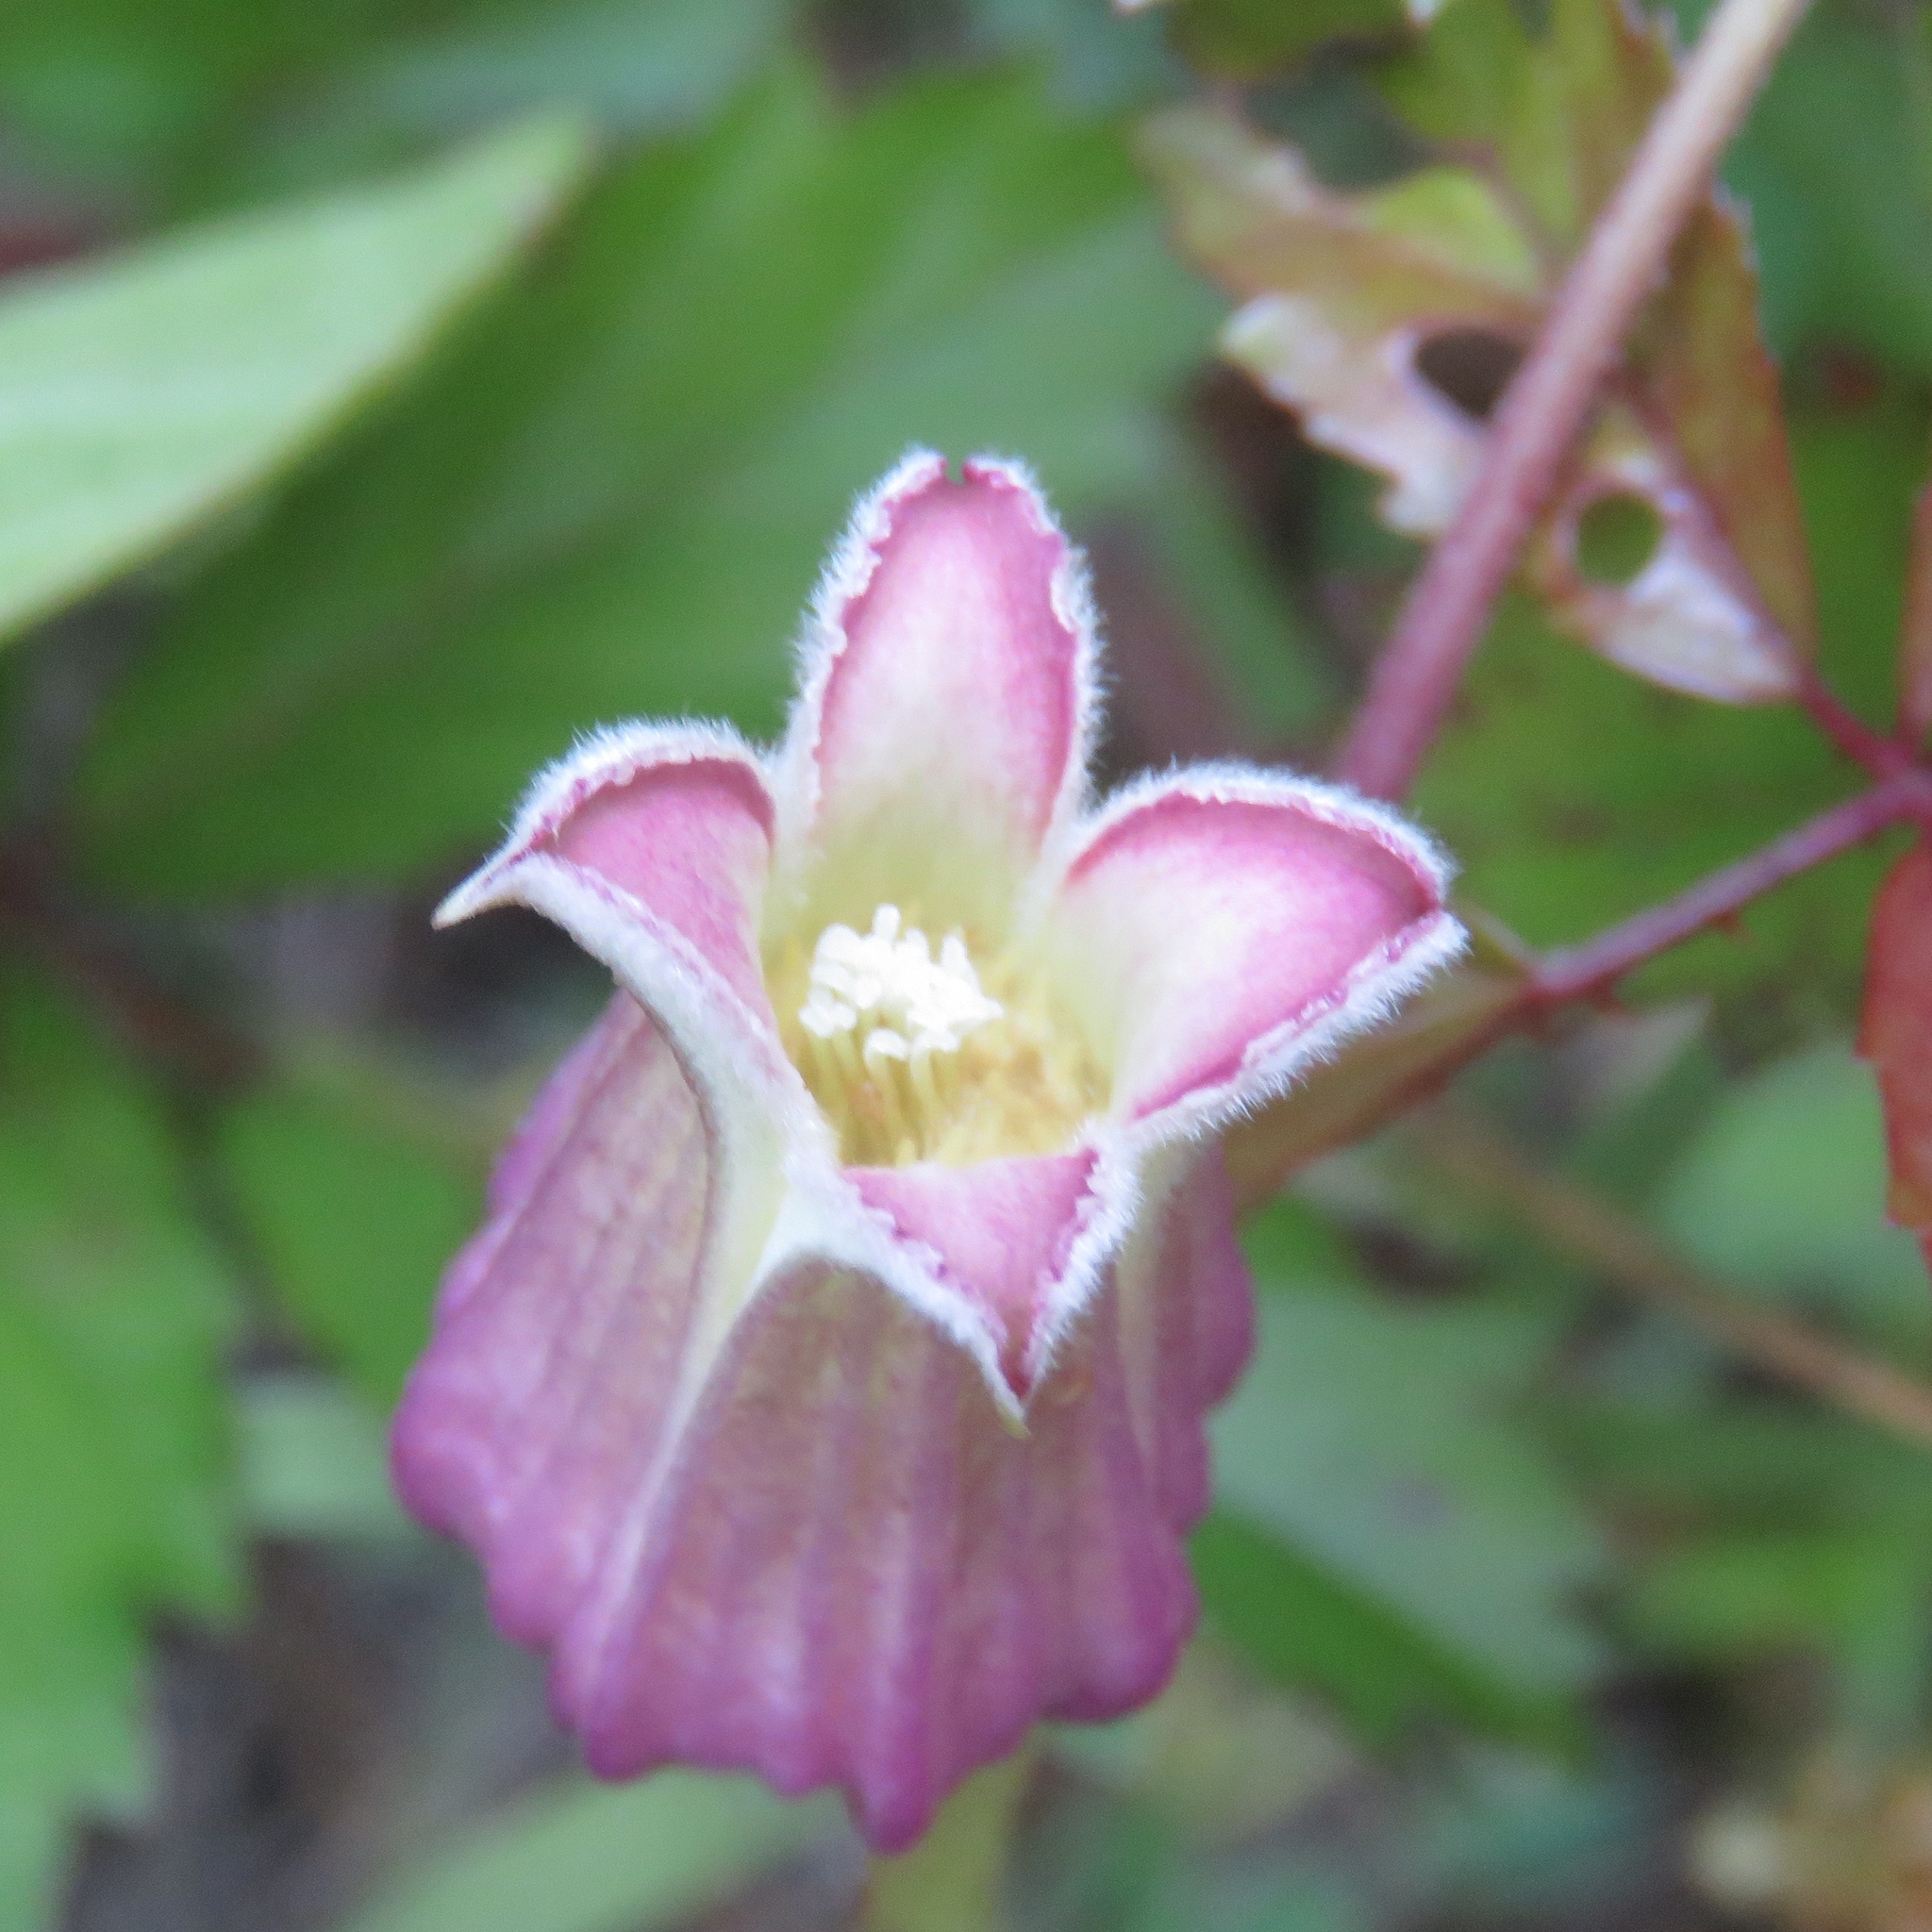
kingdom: Plantae
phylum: Tracheophyta
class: Magnoliopsida
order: Ranunculales
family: Ranunculaceae
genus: Clematis
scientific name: Clematis reticulata
